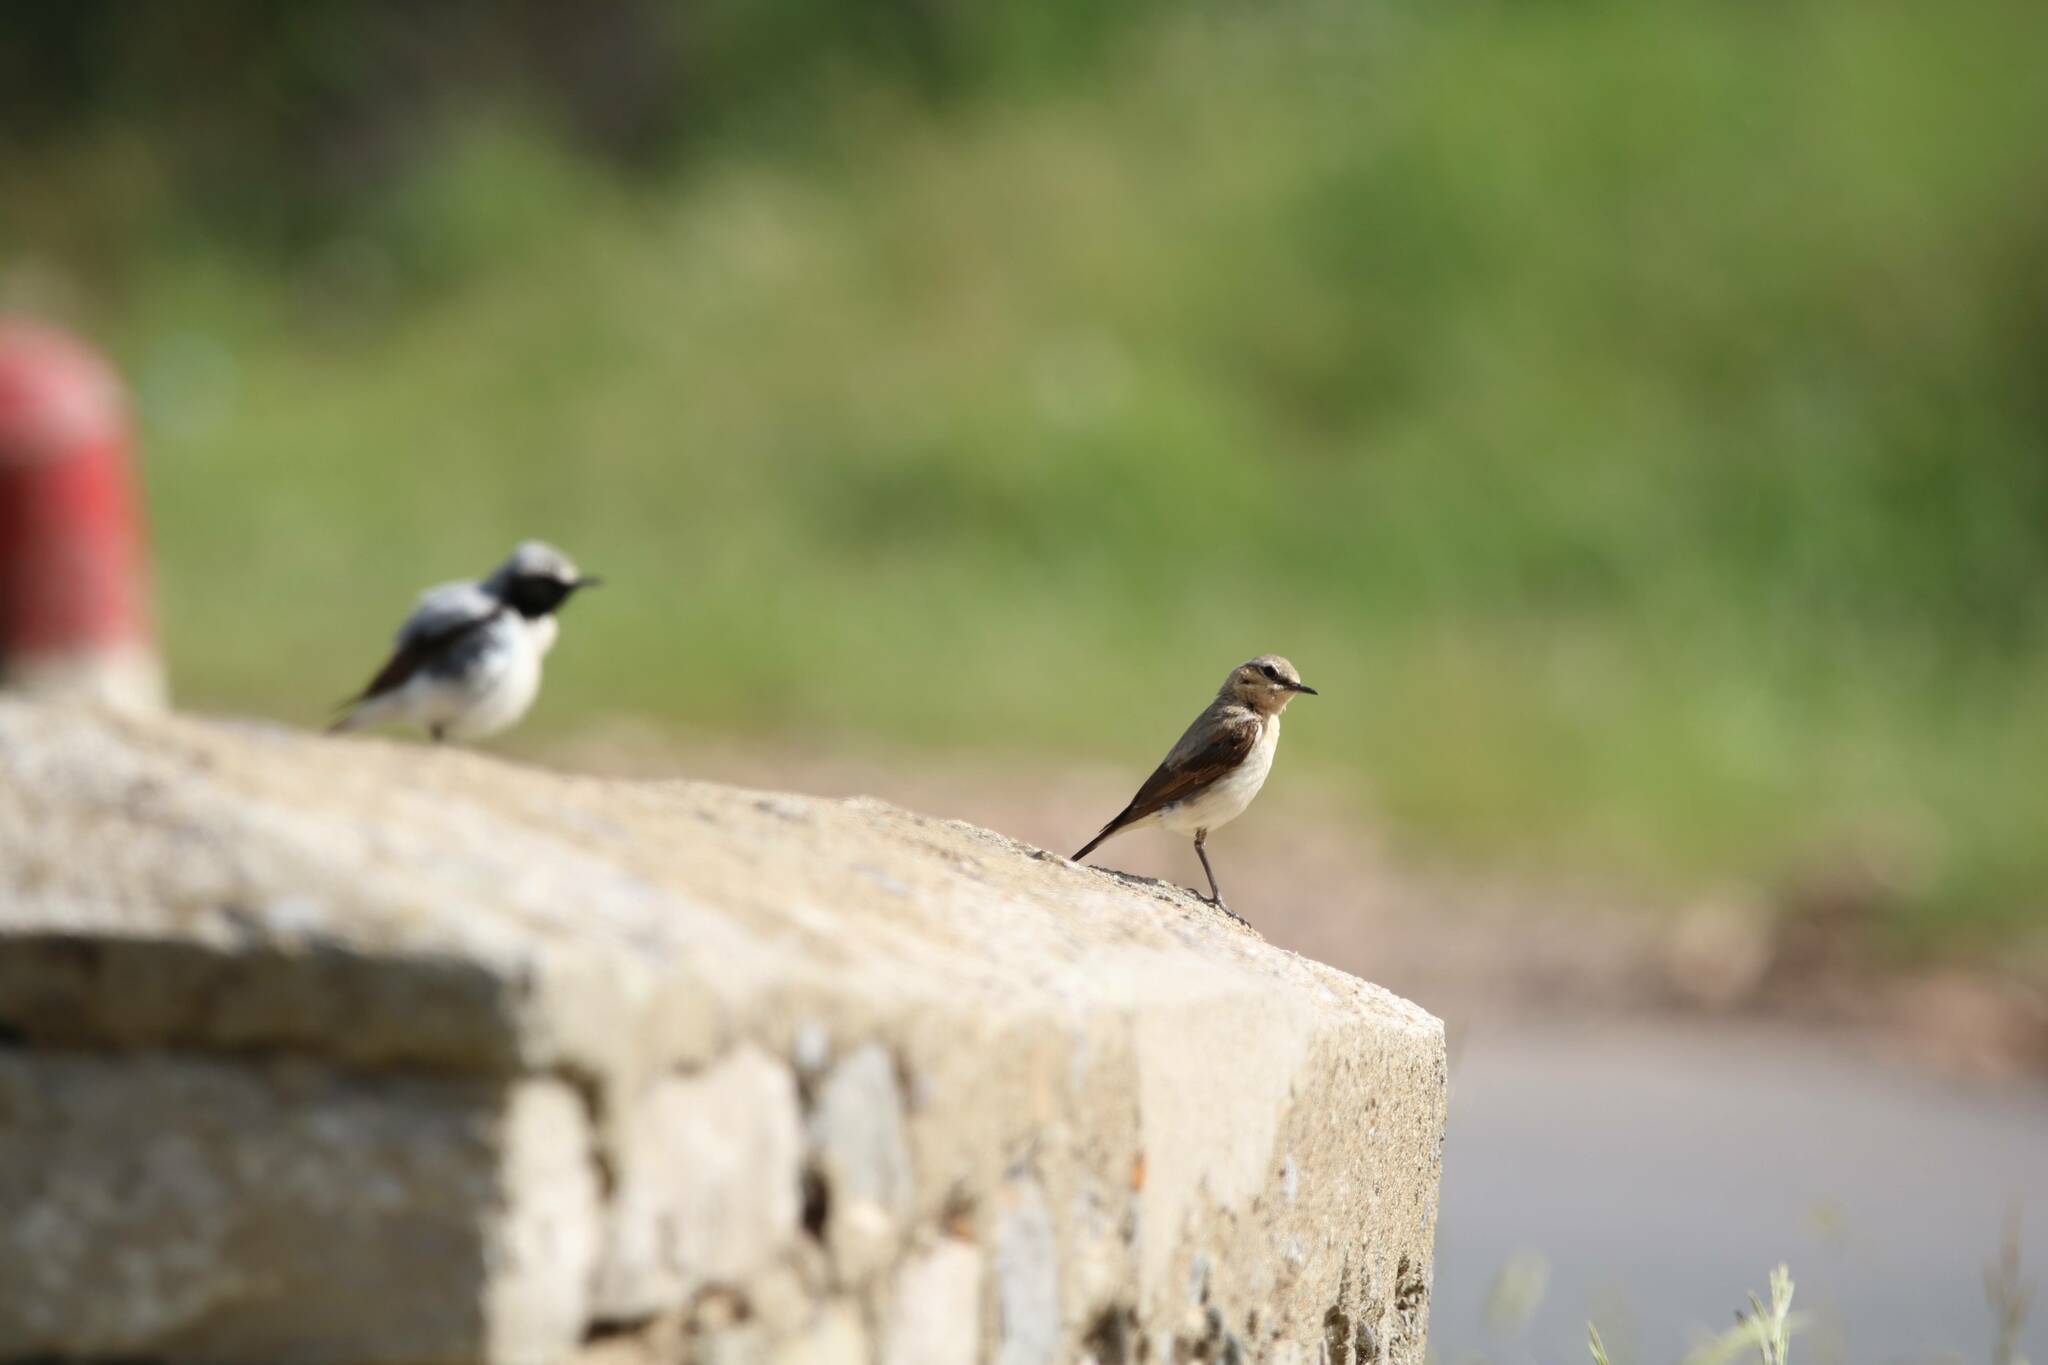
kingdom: Animalia
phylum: Chordata
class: Aves
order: Passeriformes
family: Muscicapidae
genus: Oenanthe
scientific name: Oenanthe oenanthe
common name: Northern wheatear
